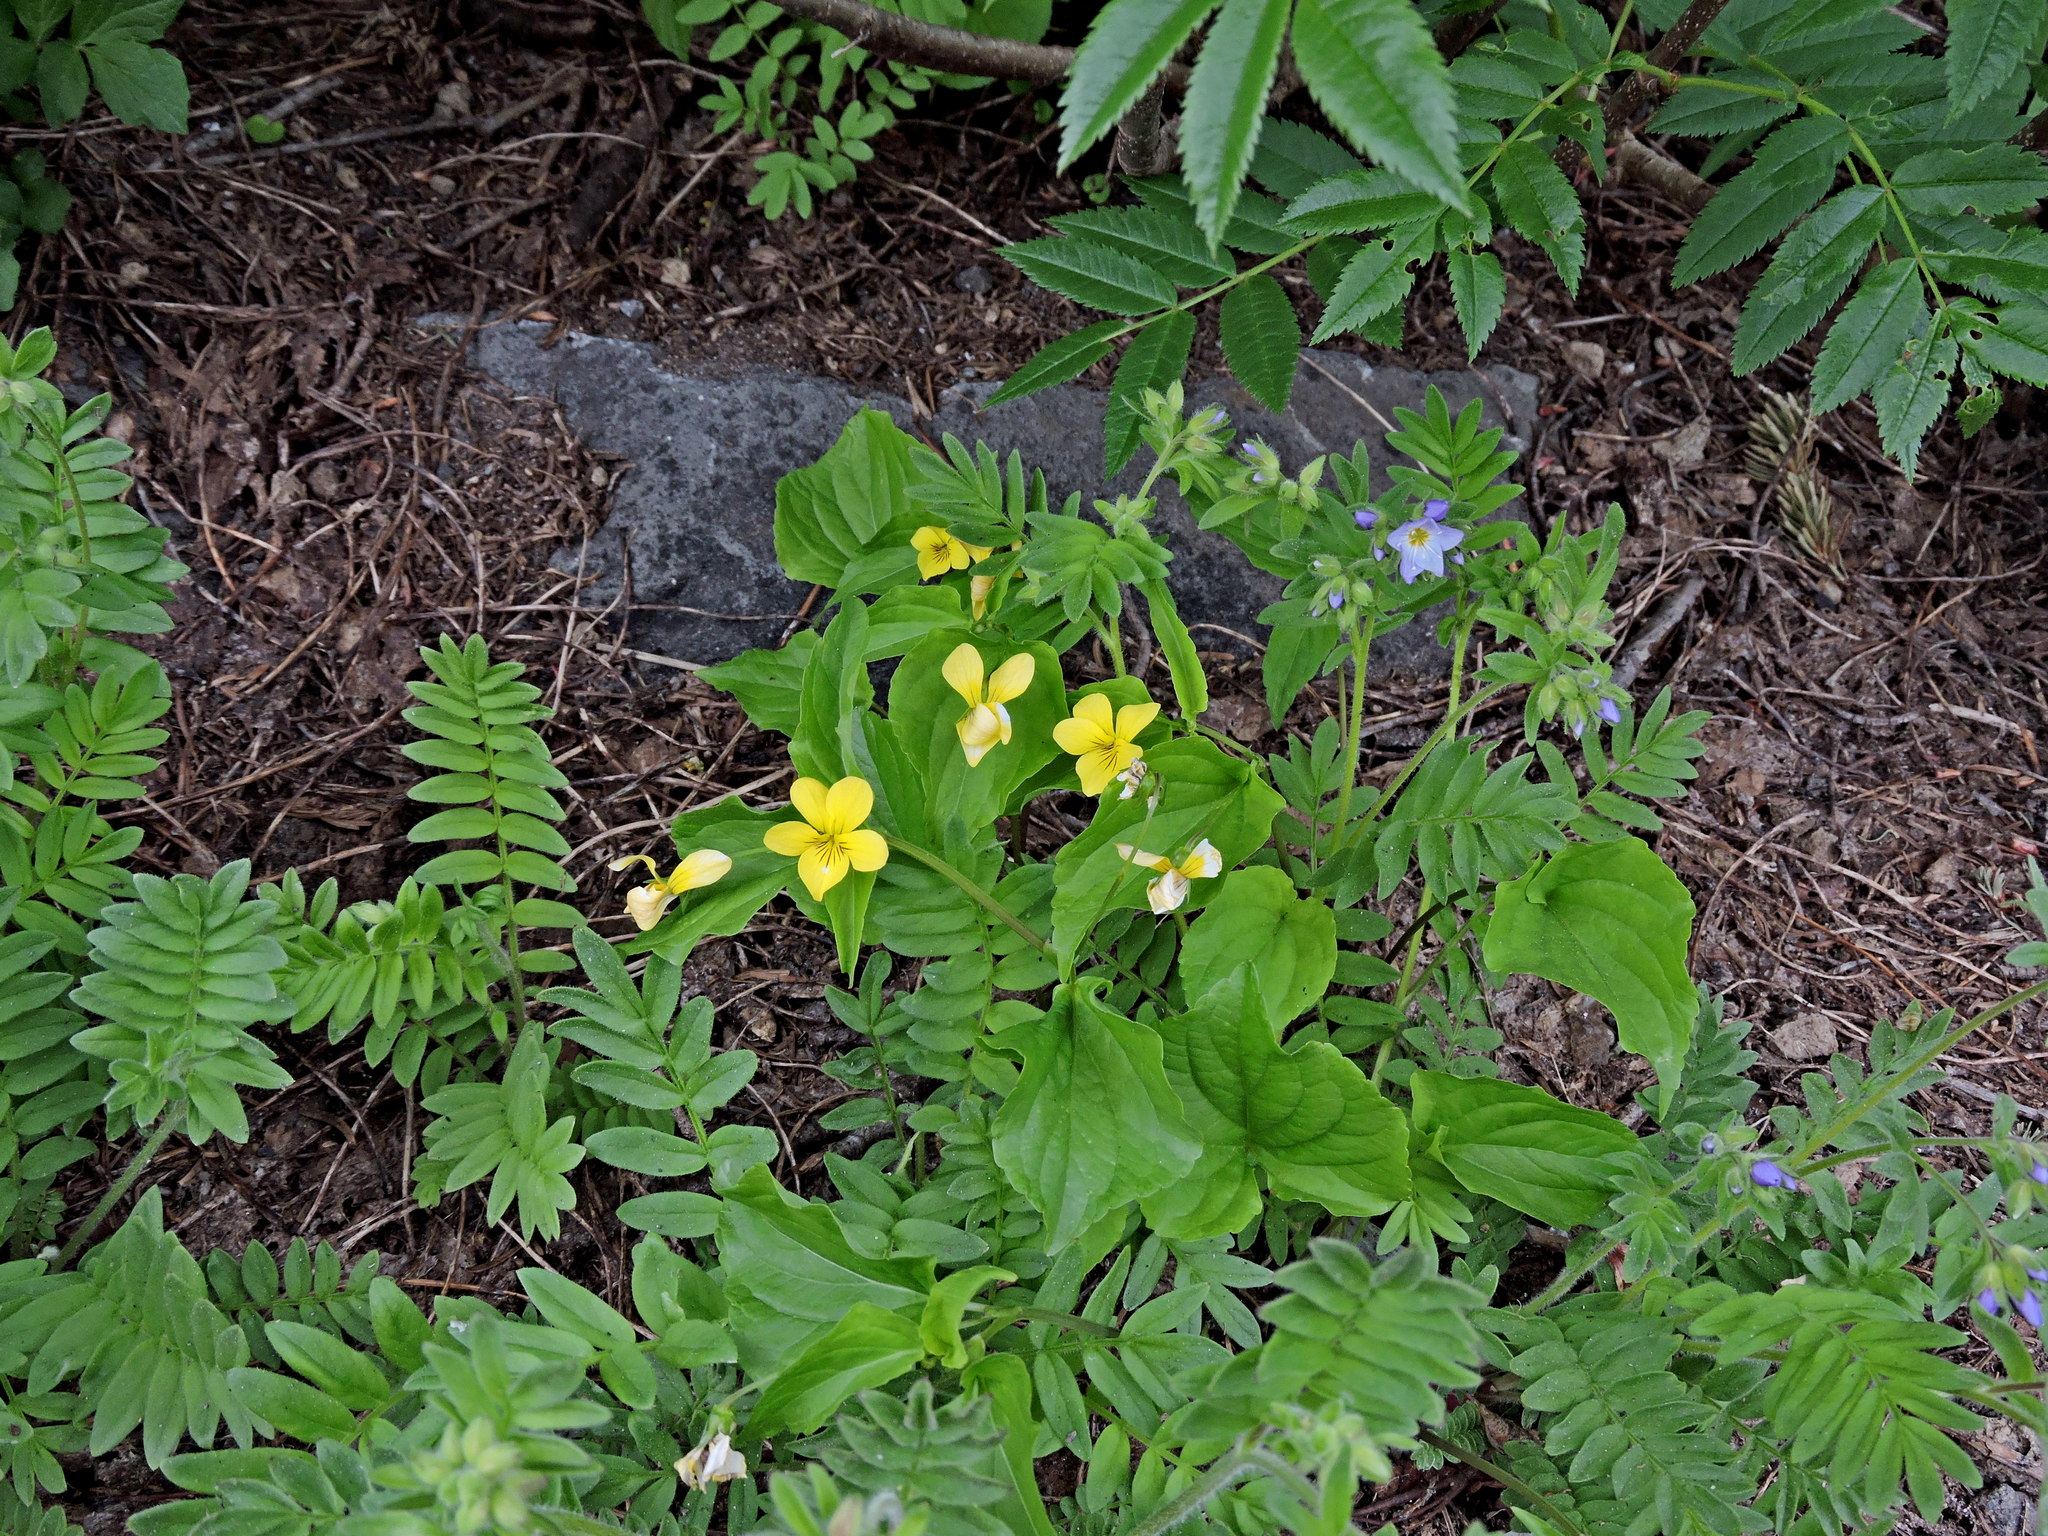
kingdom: Plantae
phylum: Tracheophyta
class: Magnoliopsida
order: Malpighiales
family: Violaceae
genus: Viola
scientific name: Viola glabella
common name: Stream violet
